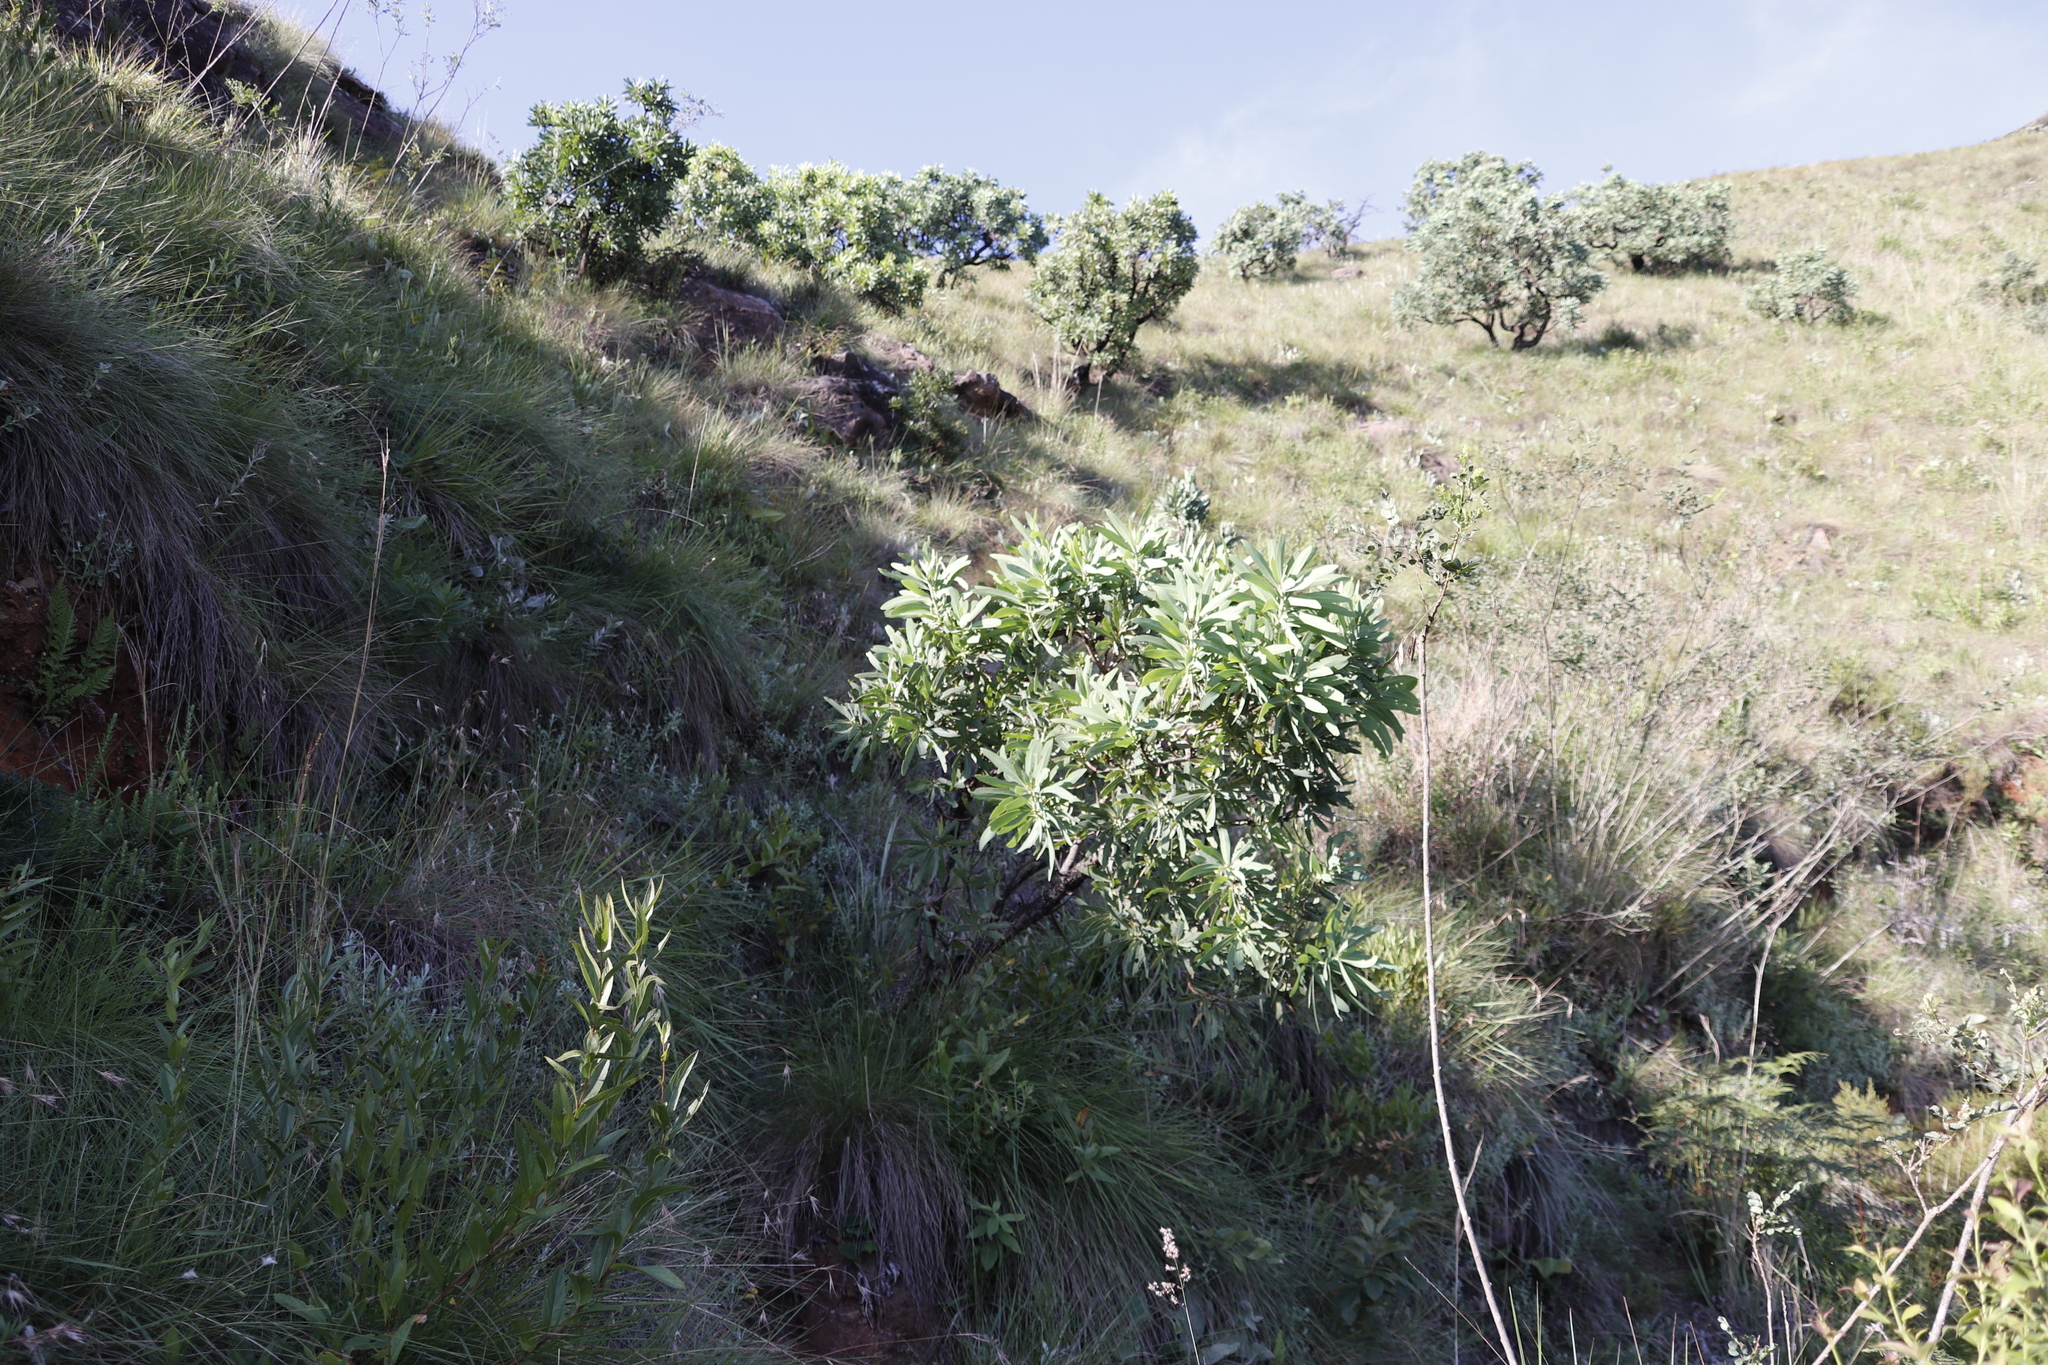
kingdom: Plantae
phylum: Tracheophyta
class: Magnoliopsida
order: Proteales
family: Proteaceae
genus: Protea
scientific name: Protea caffra
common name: Common sugarbush
